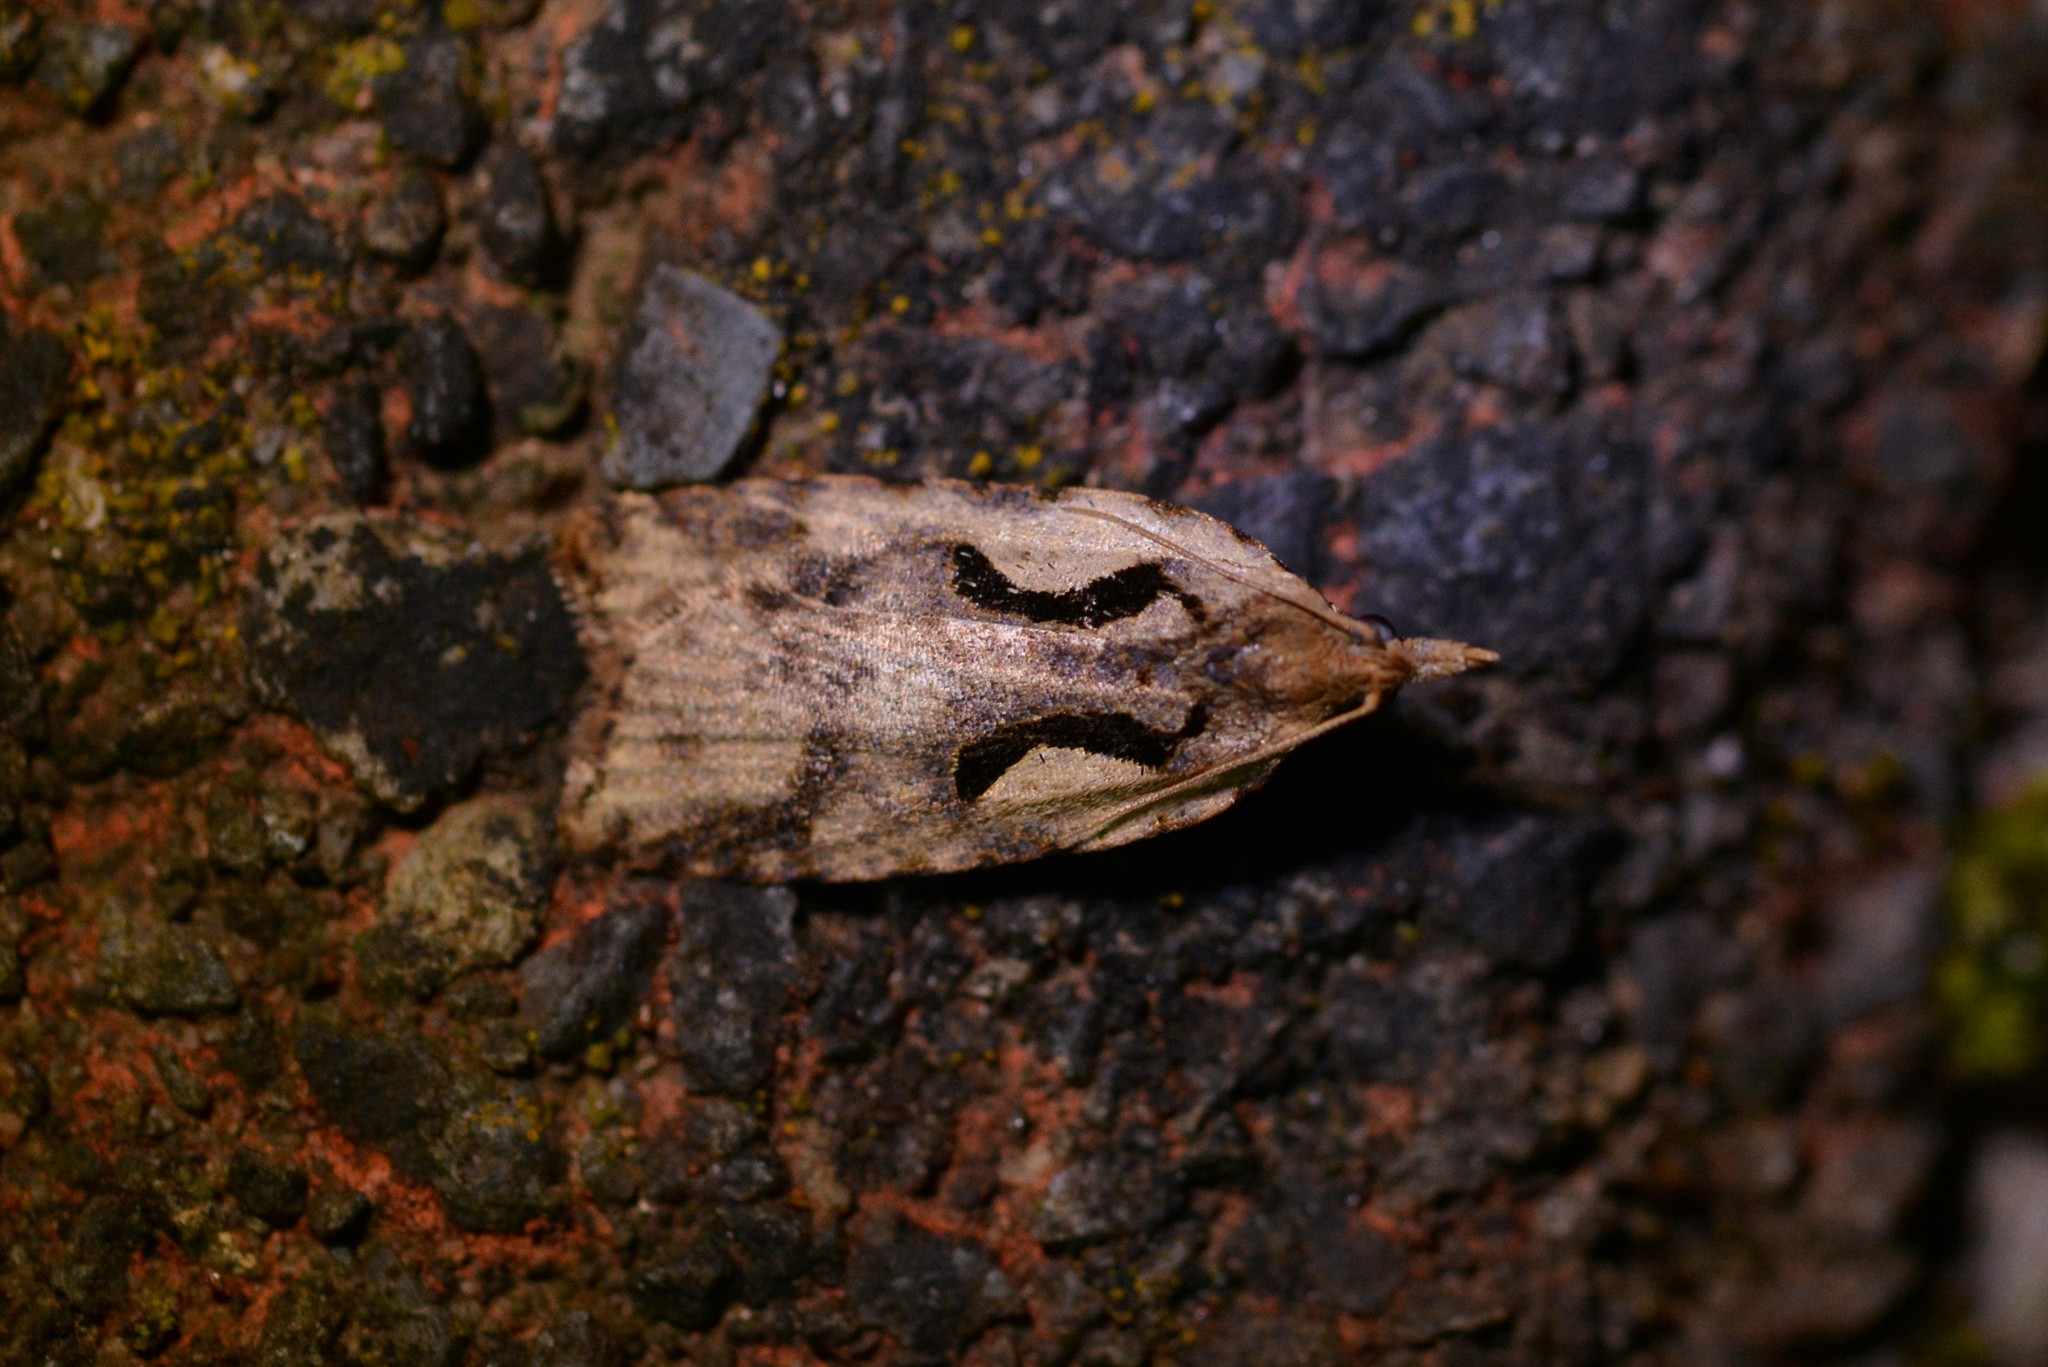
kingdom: Animalia
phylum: Arthropoda
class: Insecta
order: Lepidoptera
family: Tortricidae
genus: Cnephasia
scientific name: Cnephasia jactatana
